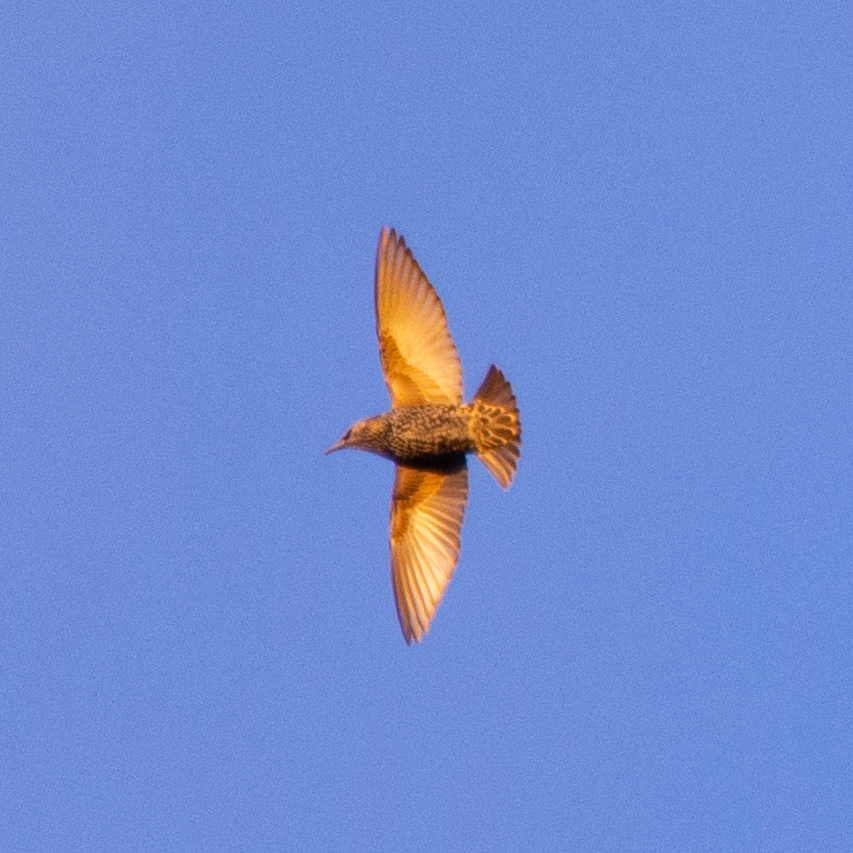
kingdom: Animalia
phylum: Chordata
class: Aves
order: Passeriformes
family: Sturnidae
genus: Sturnus
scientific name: Sturnus vulgaris
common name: Common starling
